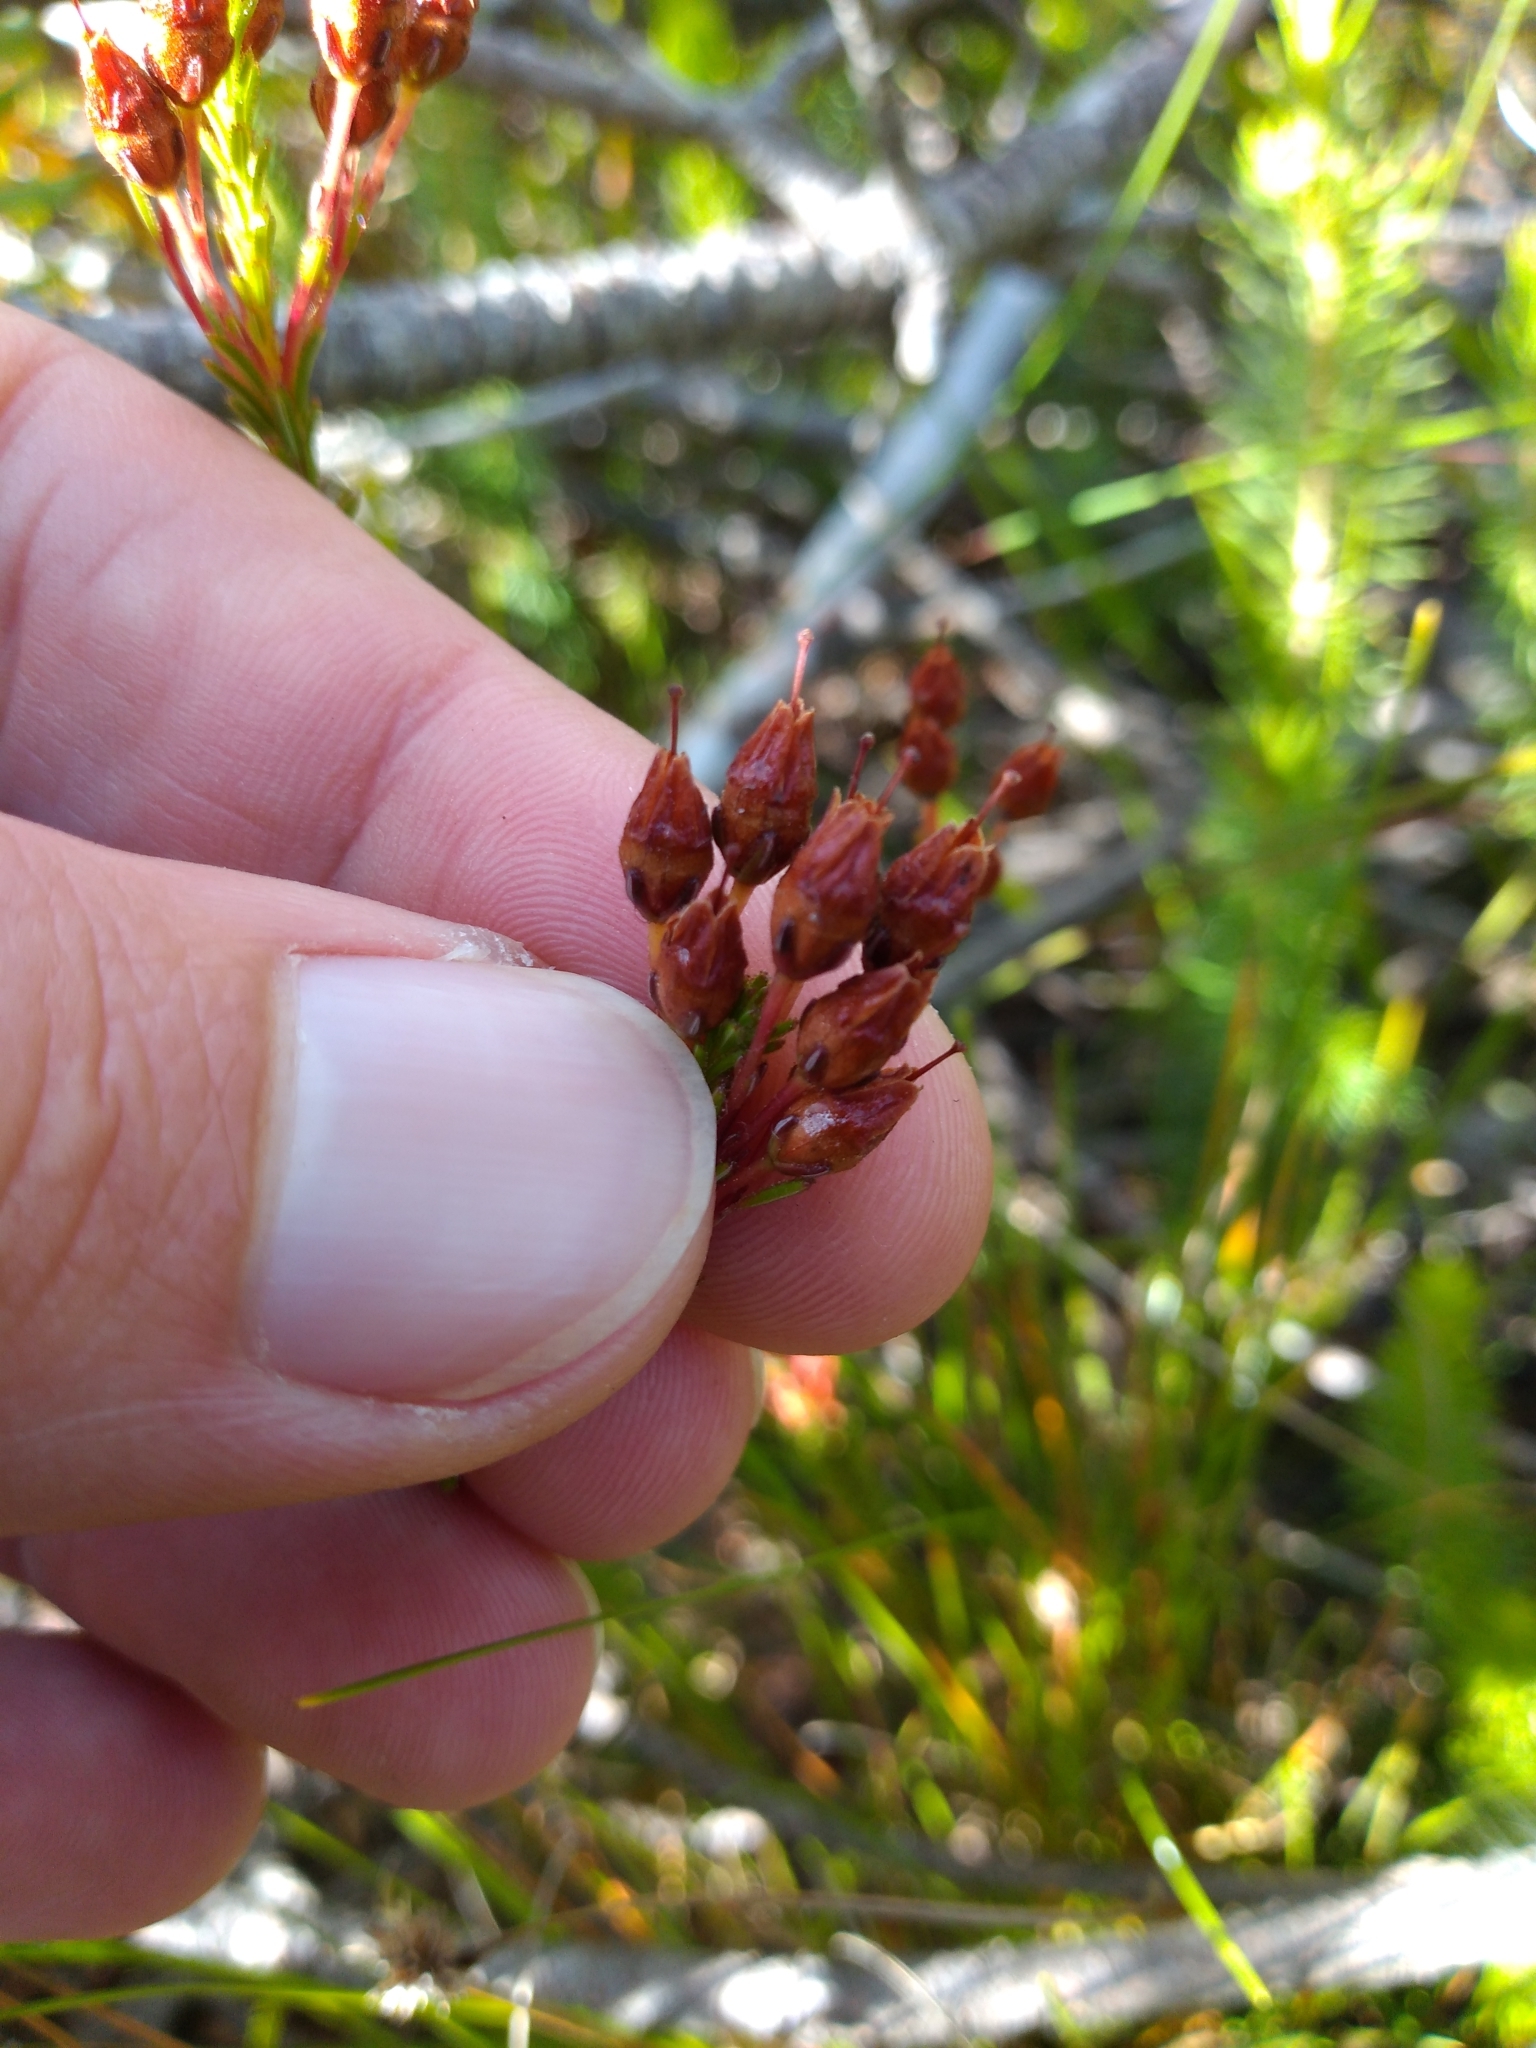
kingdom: Plantae
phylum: Tracheophyta
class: Magnoliopsida
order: Ericales
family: Ericaceae
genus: Erica
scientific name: Erica macroloma
